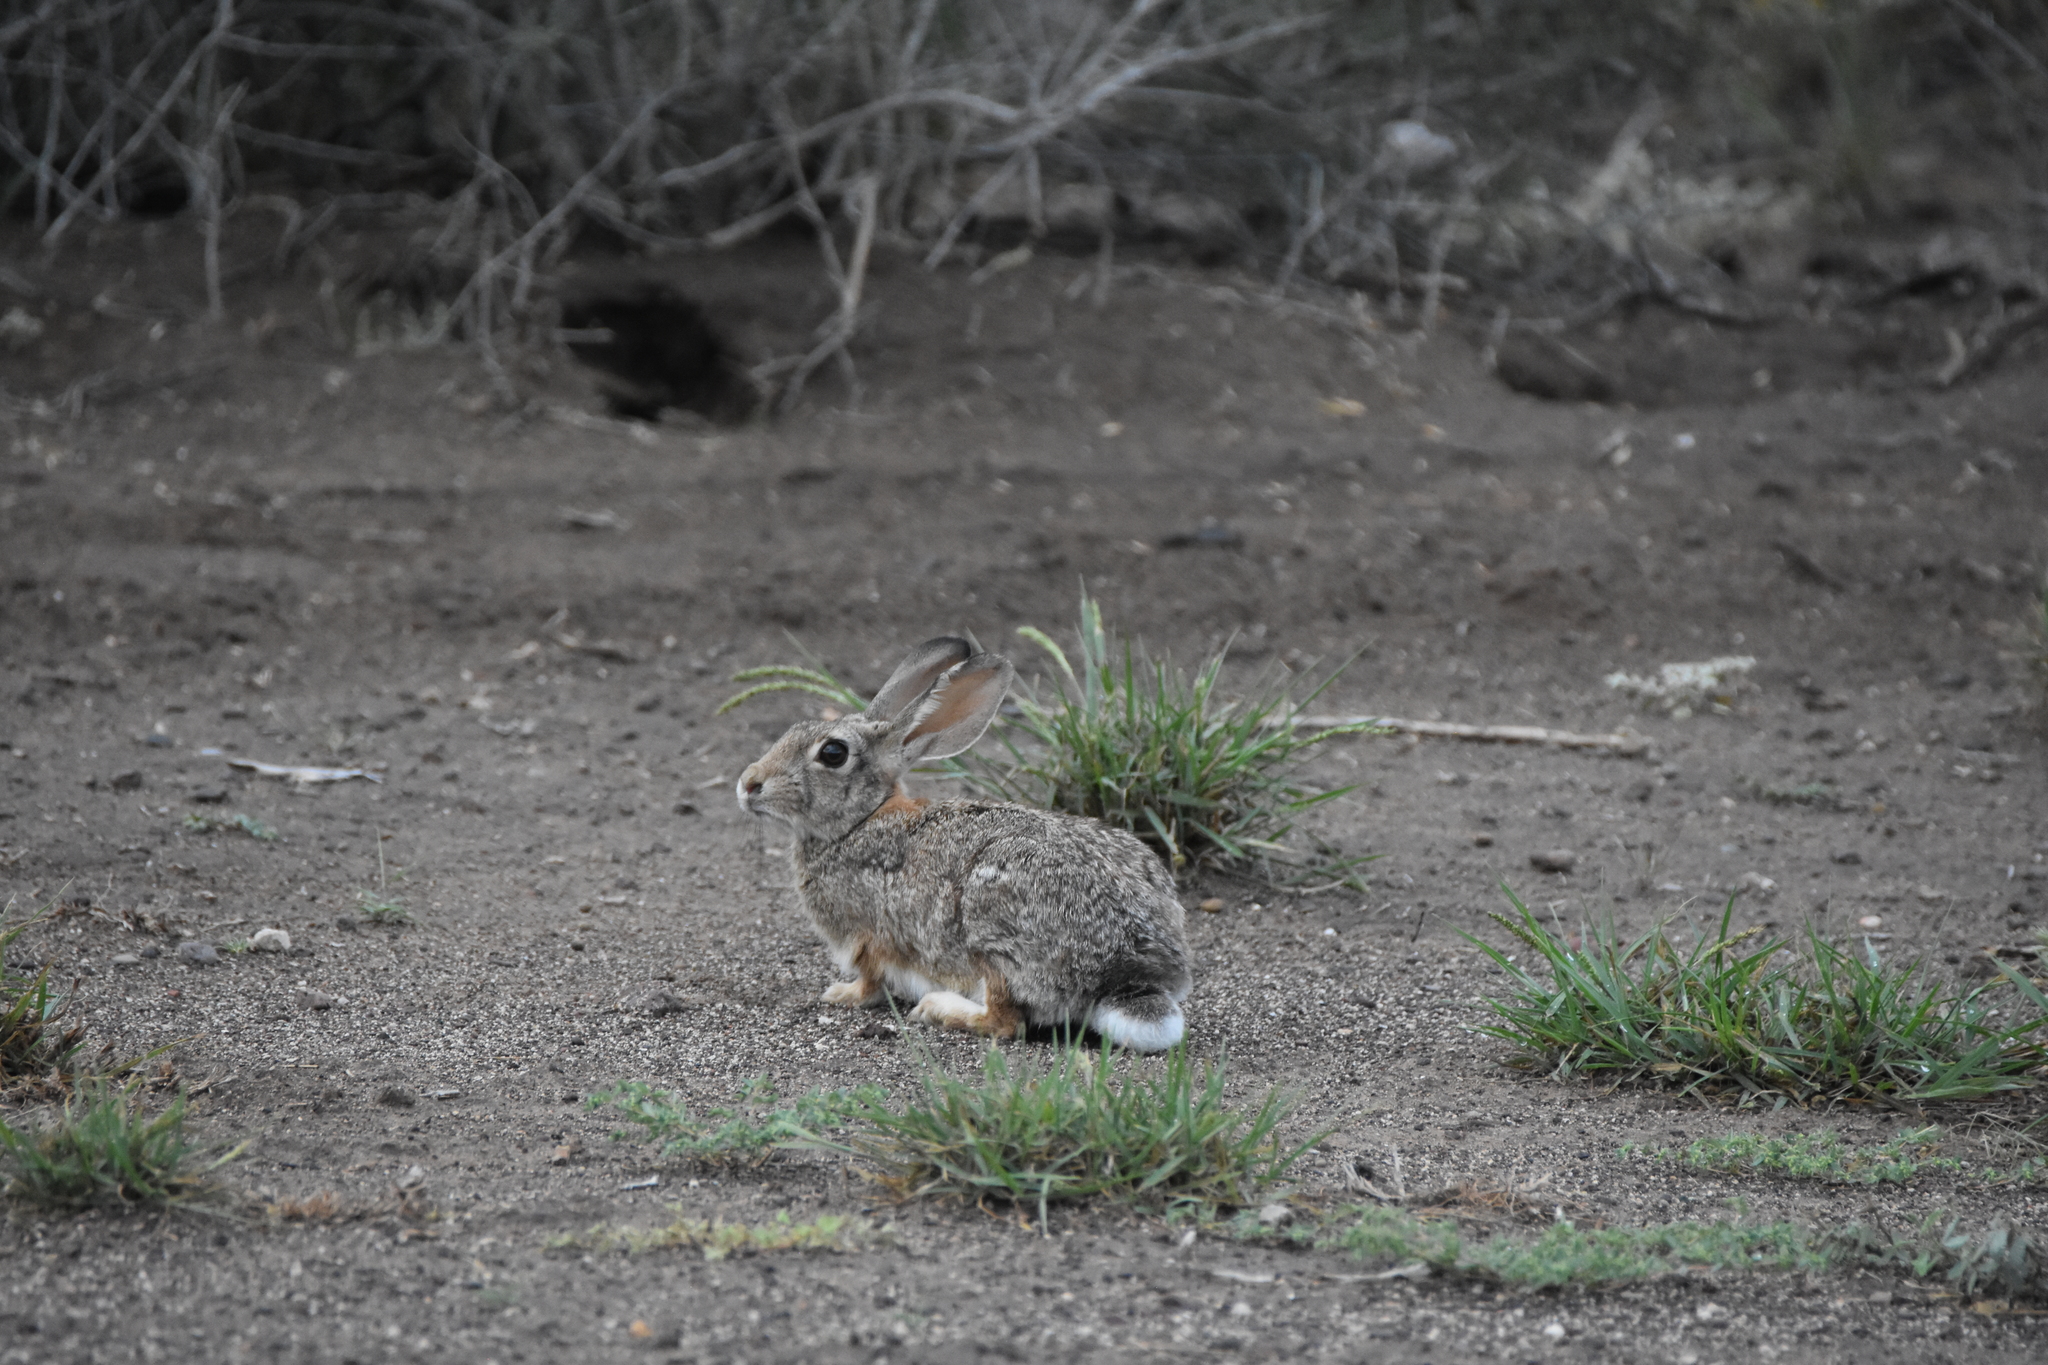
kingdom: Animalia
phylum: Chordata
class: Mammalia
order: Lagomorpha
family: Leporidae
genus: Sylvilagus
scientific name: Sylvilagus audubonii
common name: Desert cottontail
